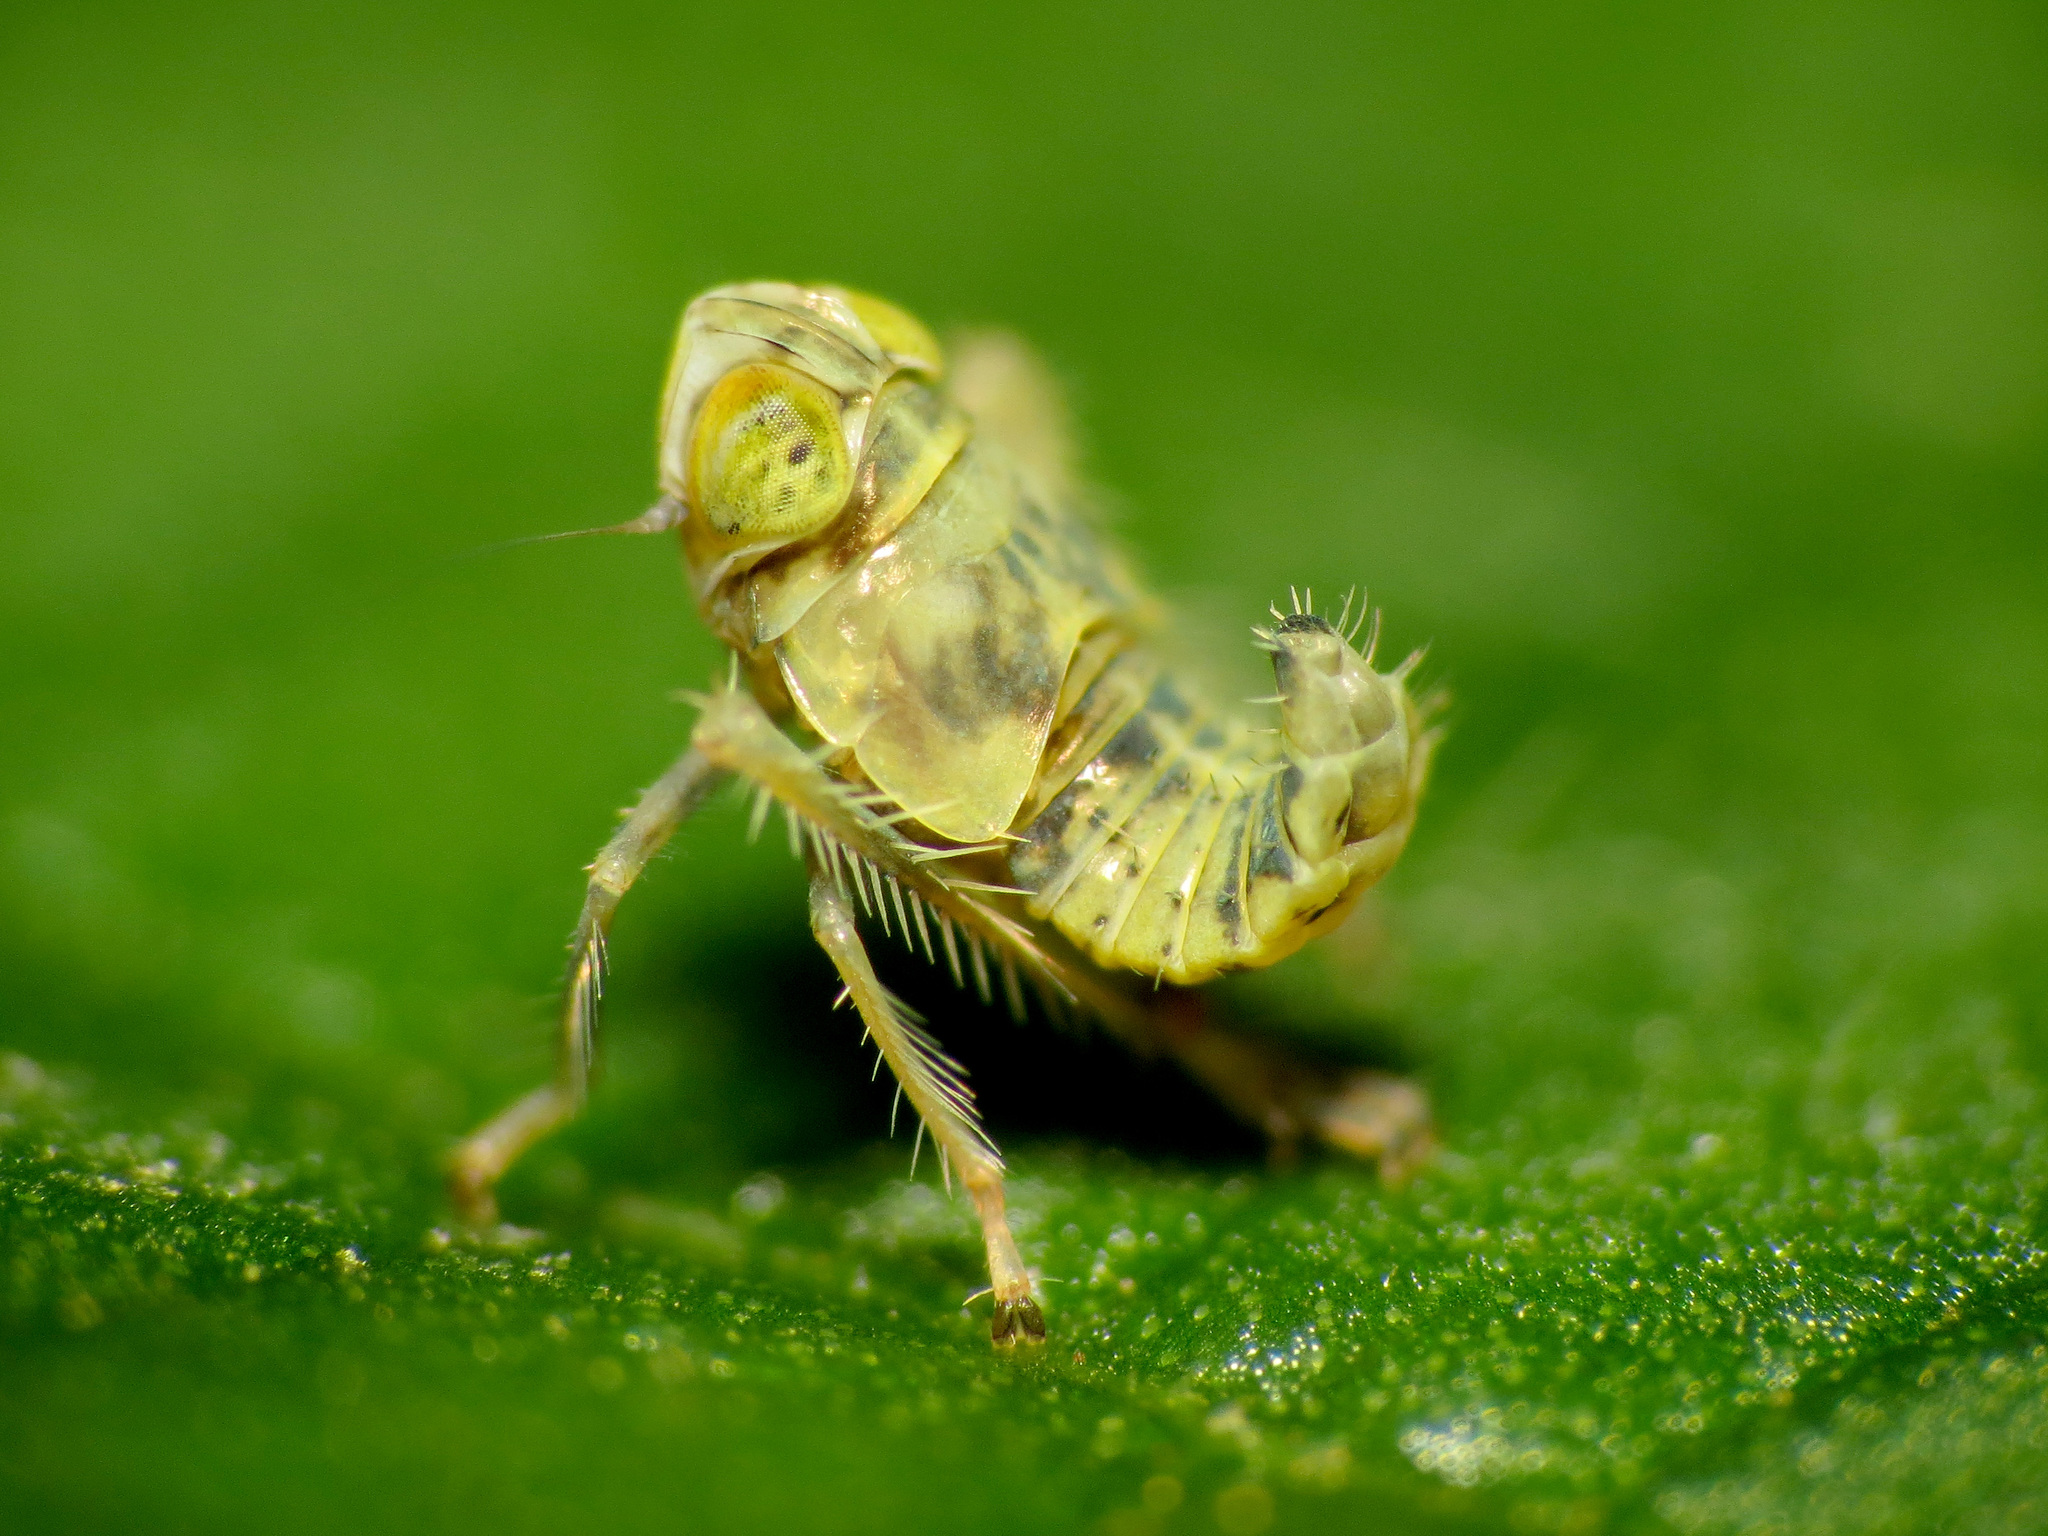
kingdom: Animalia
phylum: Arthropoda
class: Insecta
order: Hemiptera
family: Cicadellidae
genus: Jikradia
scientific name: Jikradia olitoria
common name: Coppery leafhopper
